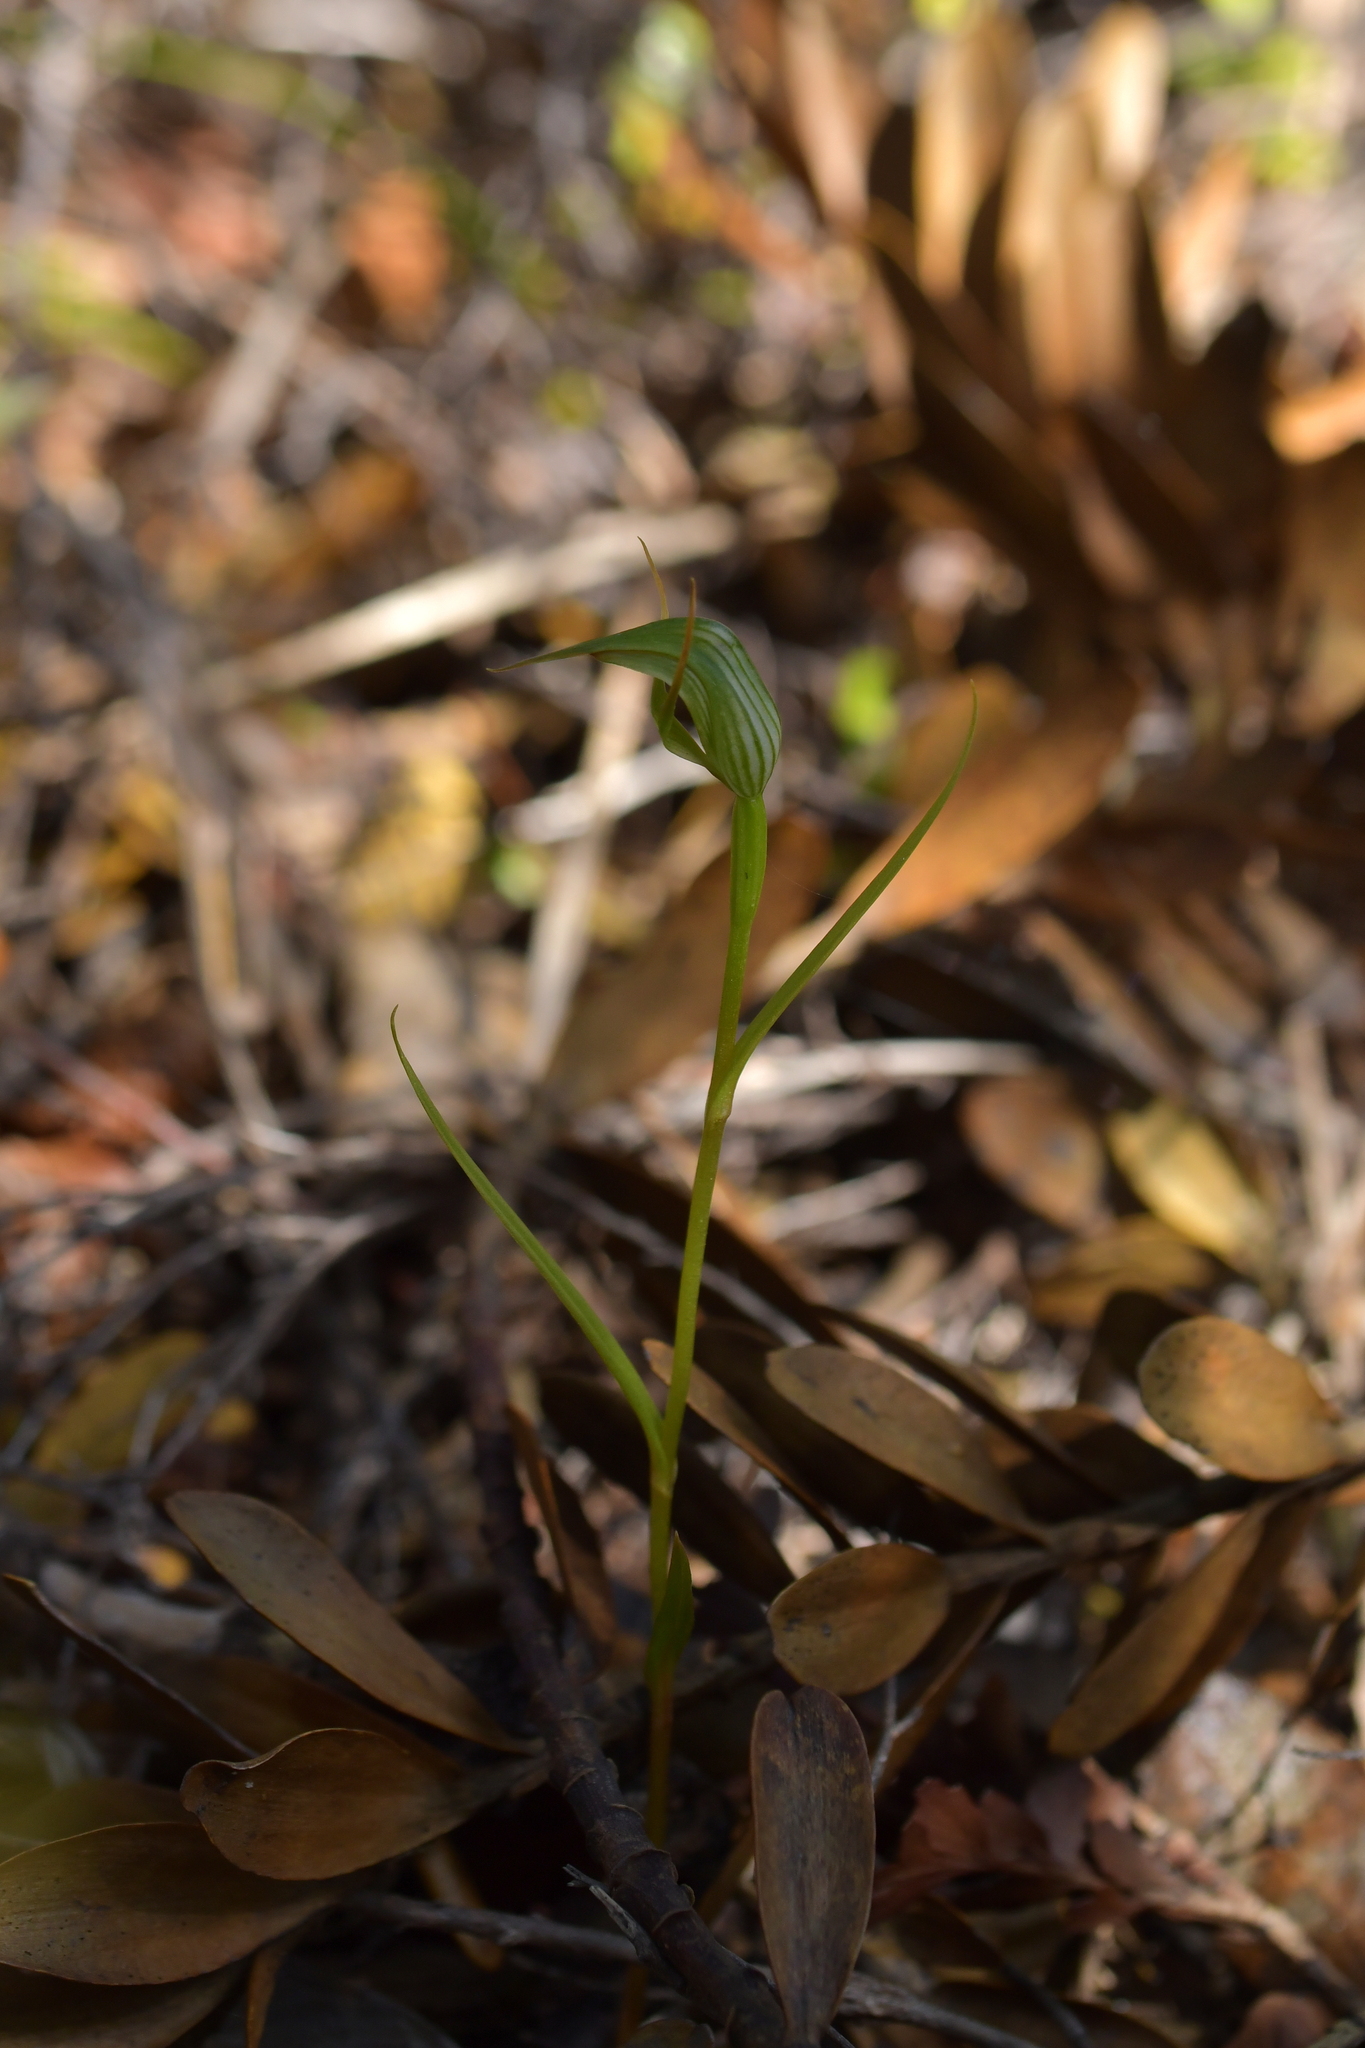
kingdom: Plantae
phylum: Tracheophyta
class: Liliopsida
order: Asparagales
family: Orchidaceae
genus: Pterostylis
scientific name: Pterostylis agathicola
